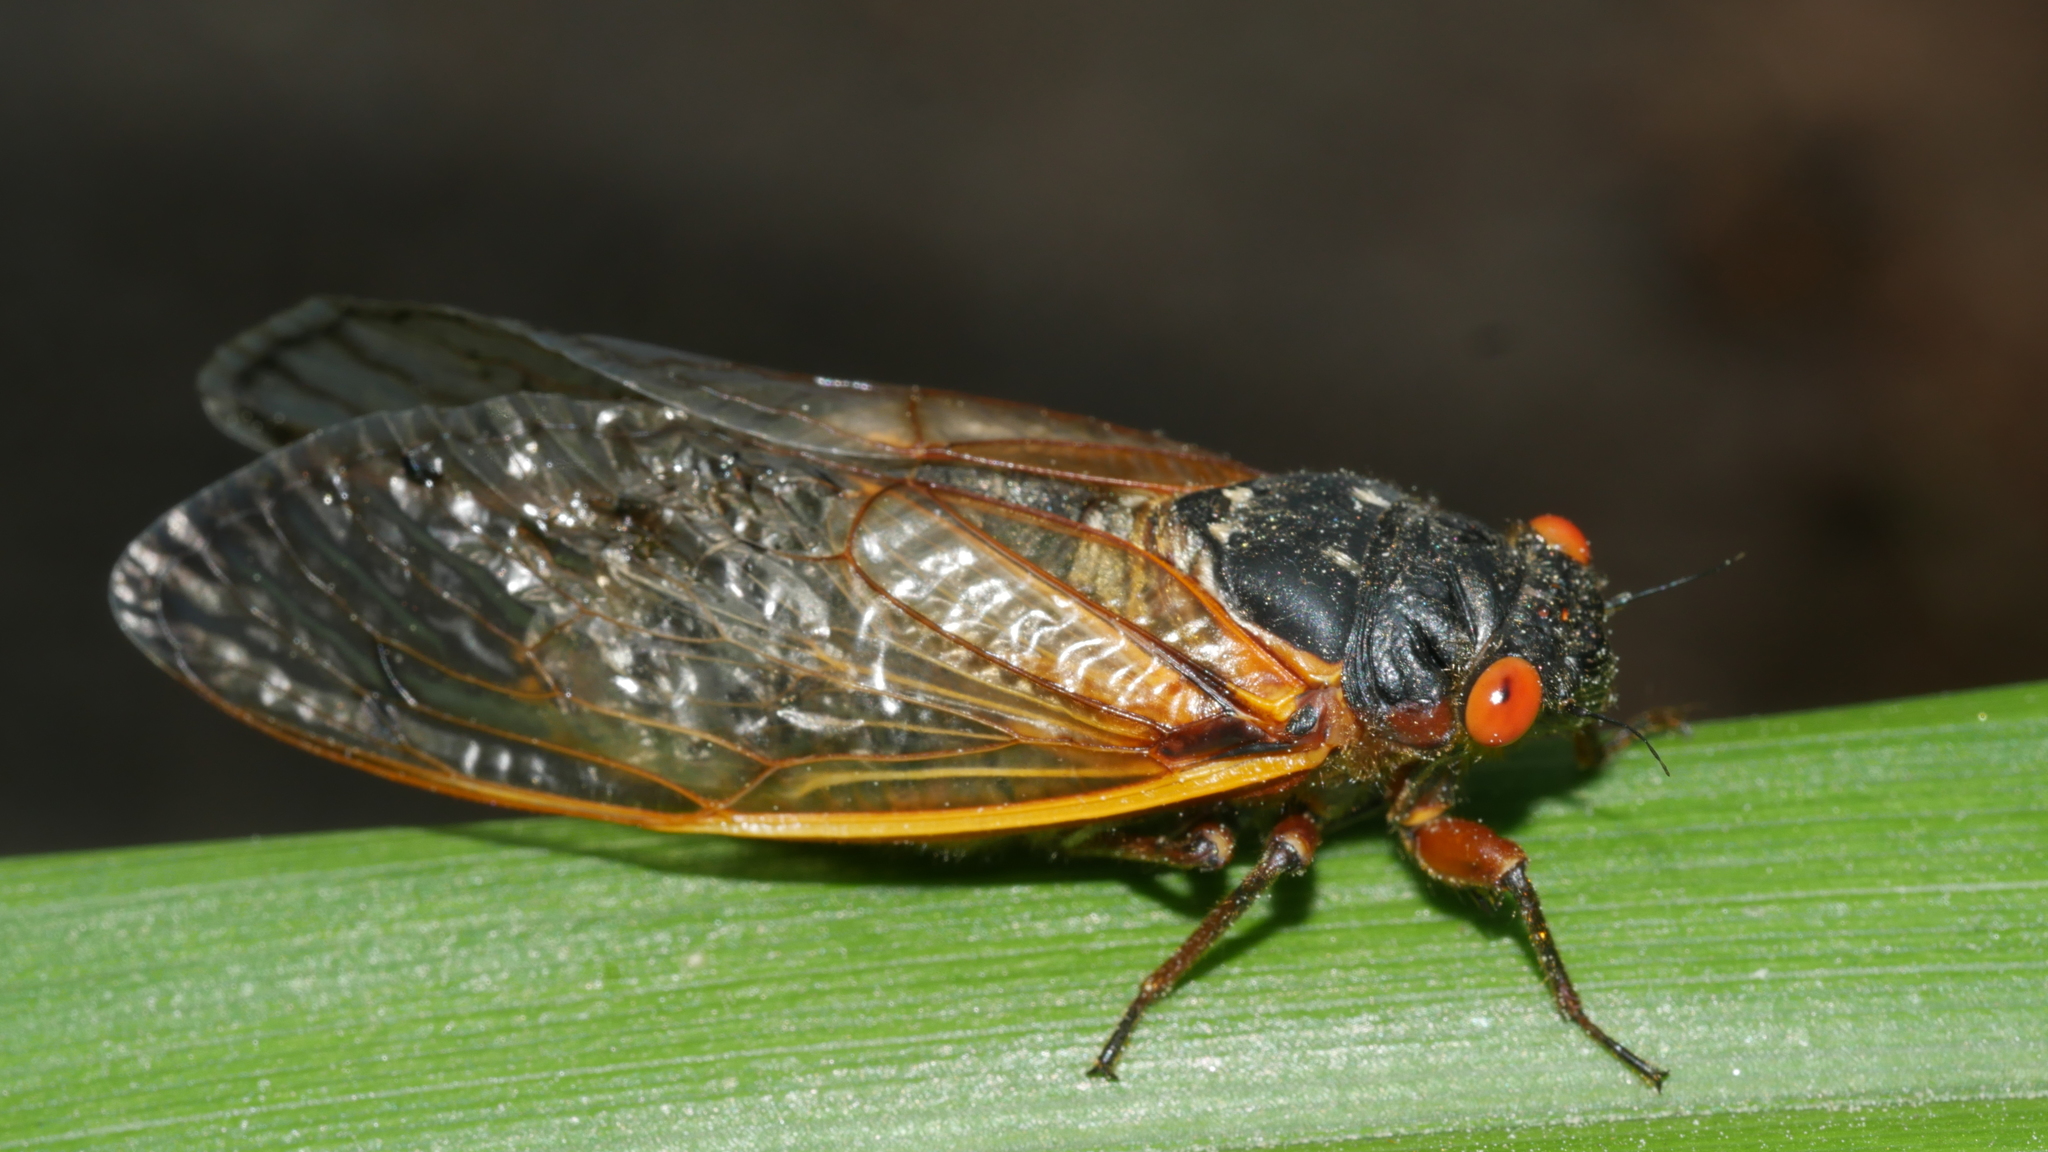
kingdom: Animalia
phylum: Arthropoda
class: Insecta
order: Hemiptera
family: Cicadidae
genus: Magicicada
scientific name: Magicicada septendecim
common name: Periodical cicada
